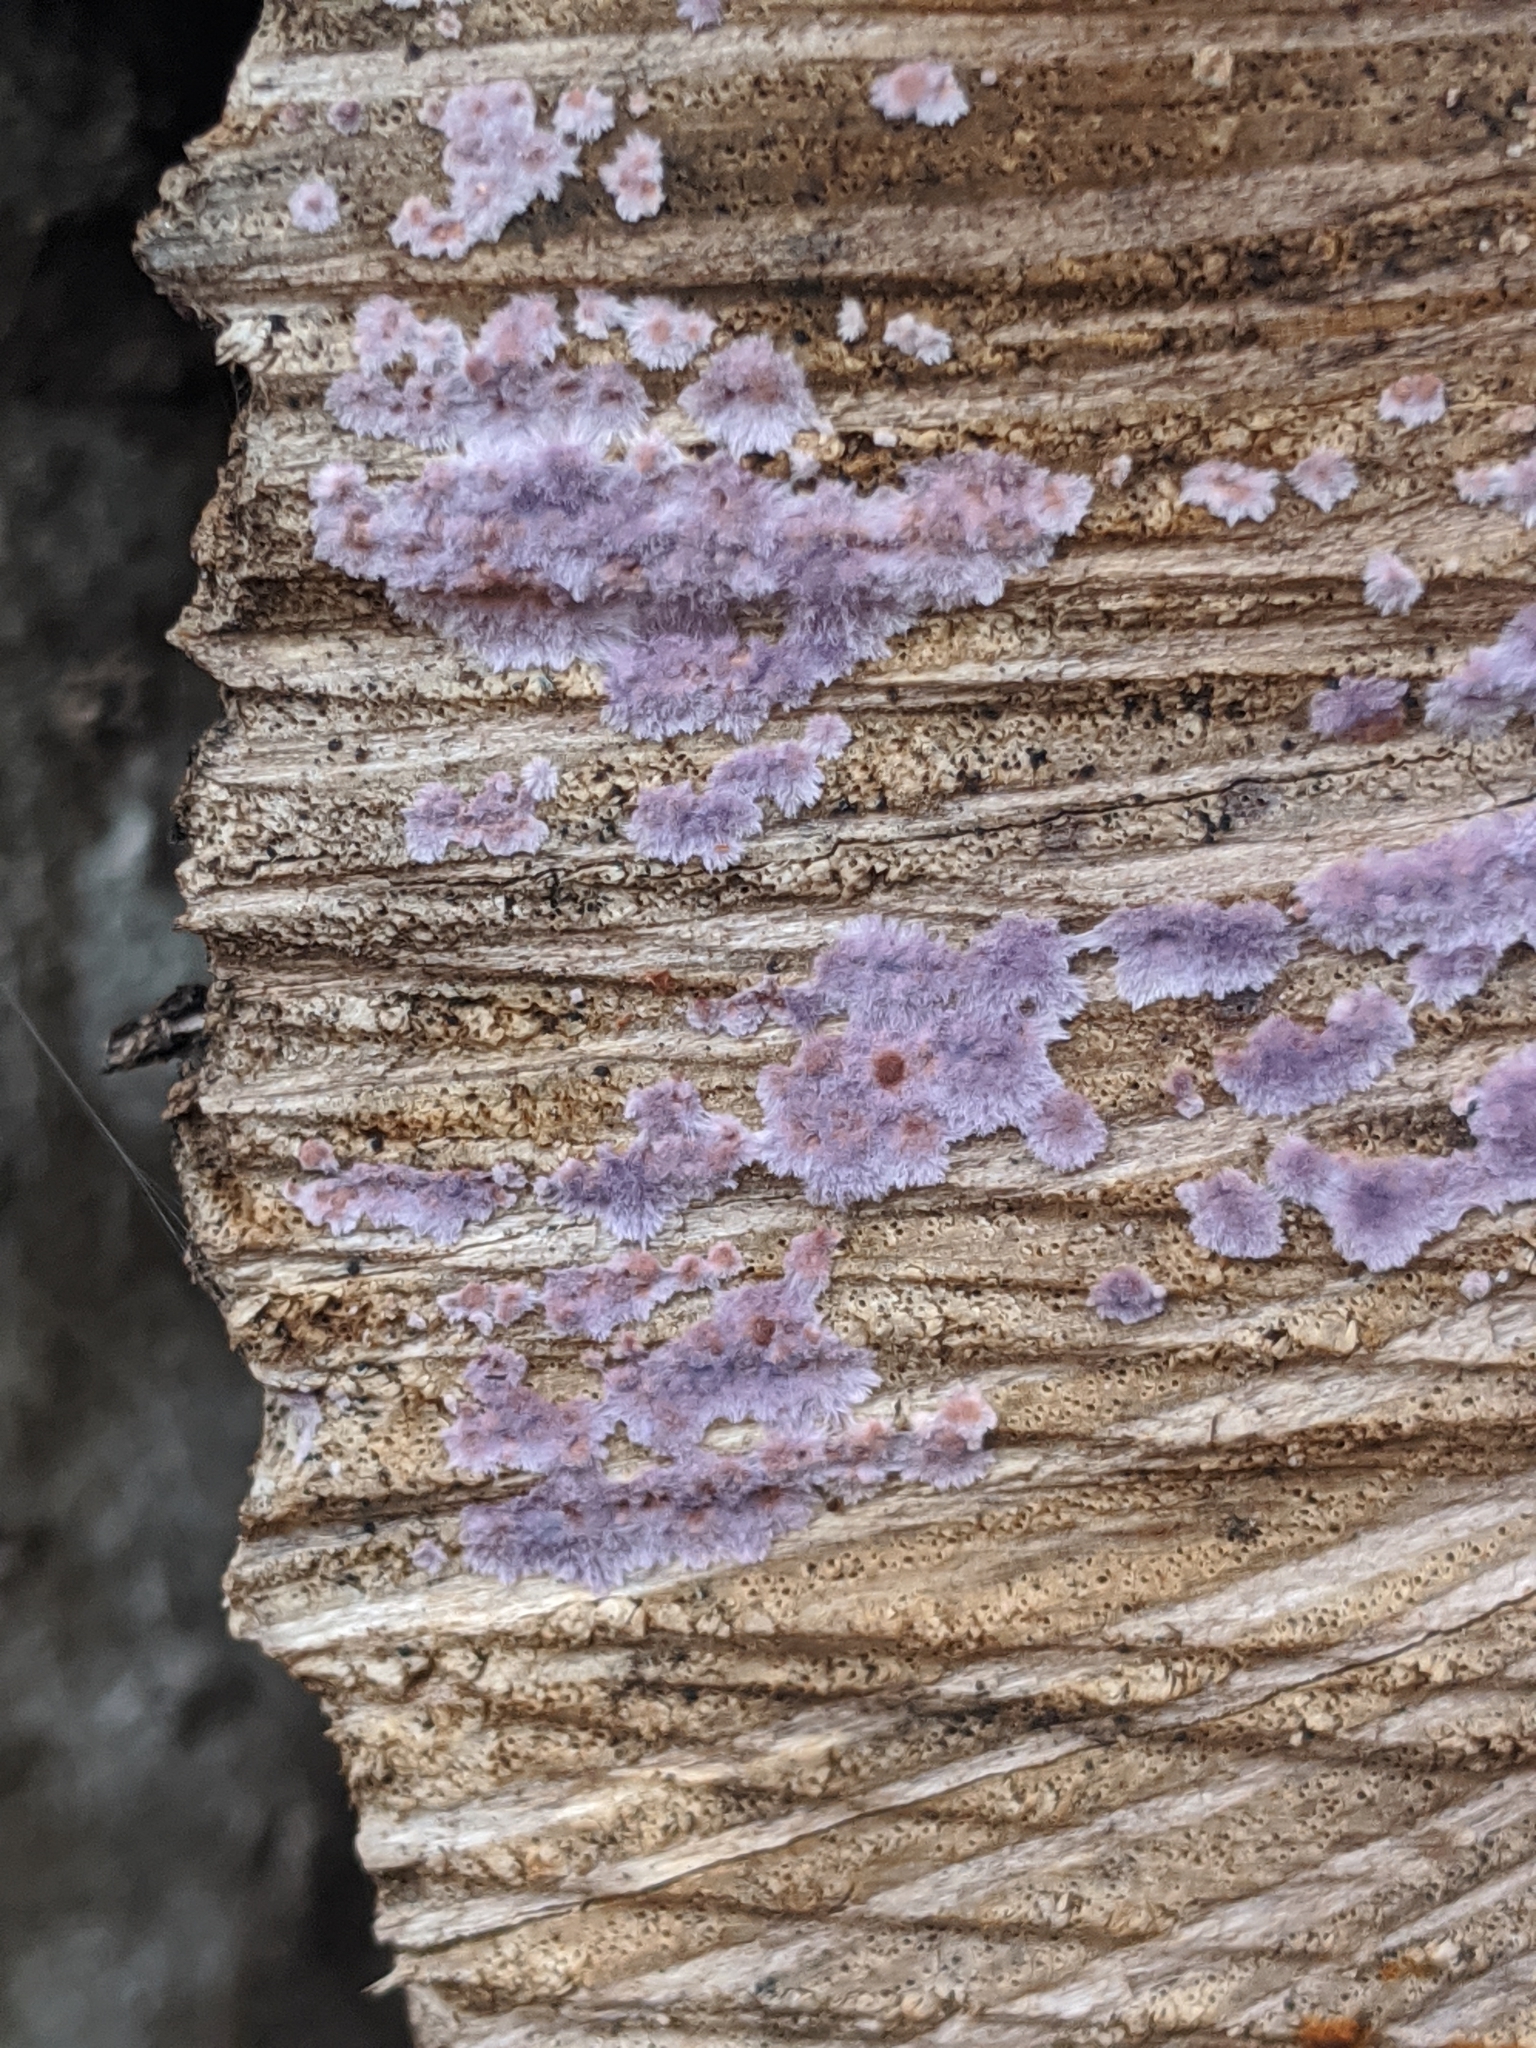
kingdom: Fungi
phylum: Basidiomycota
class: Agaricomycetes
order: Corticiales
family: Punctulariaceae
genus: Punctularia
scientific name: Punctularia atropurpurascens
